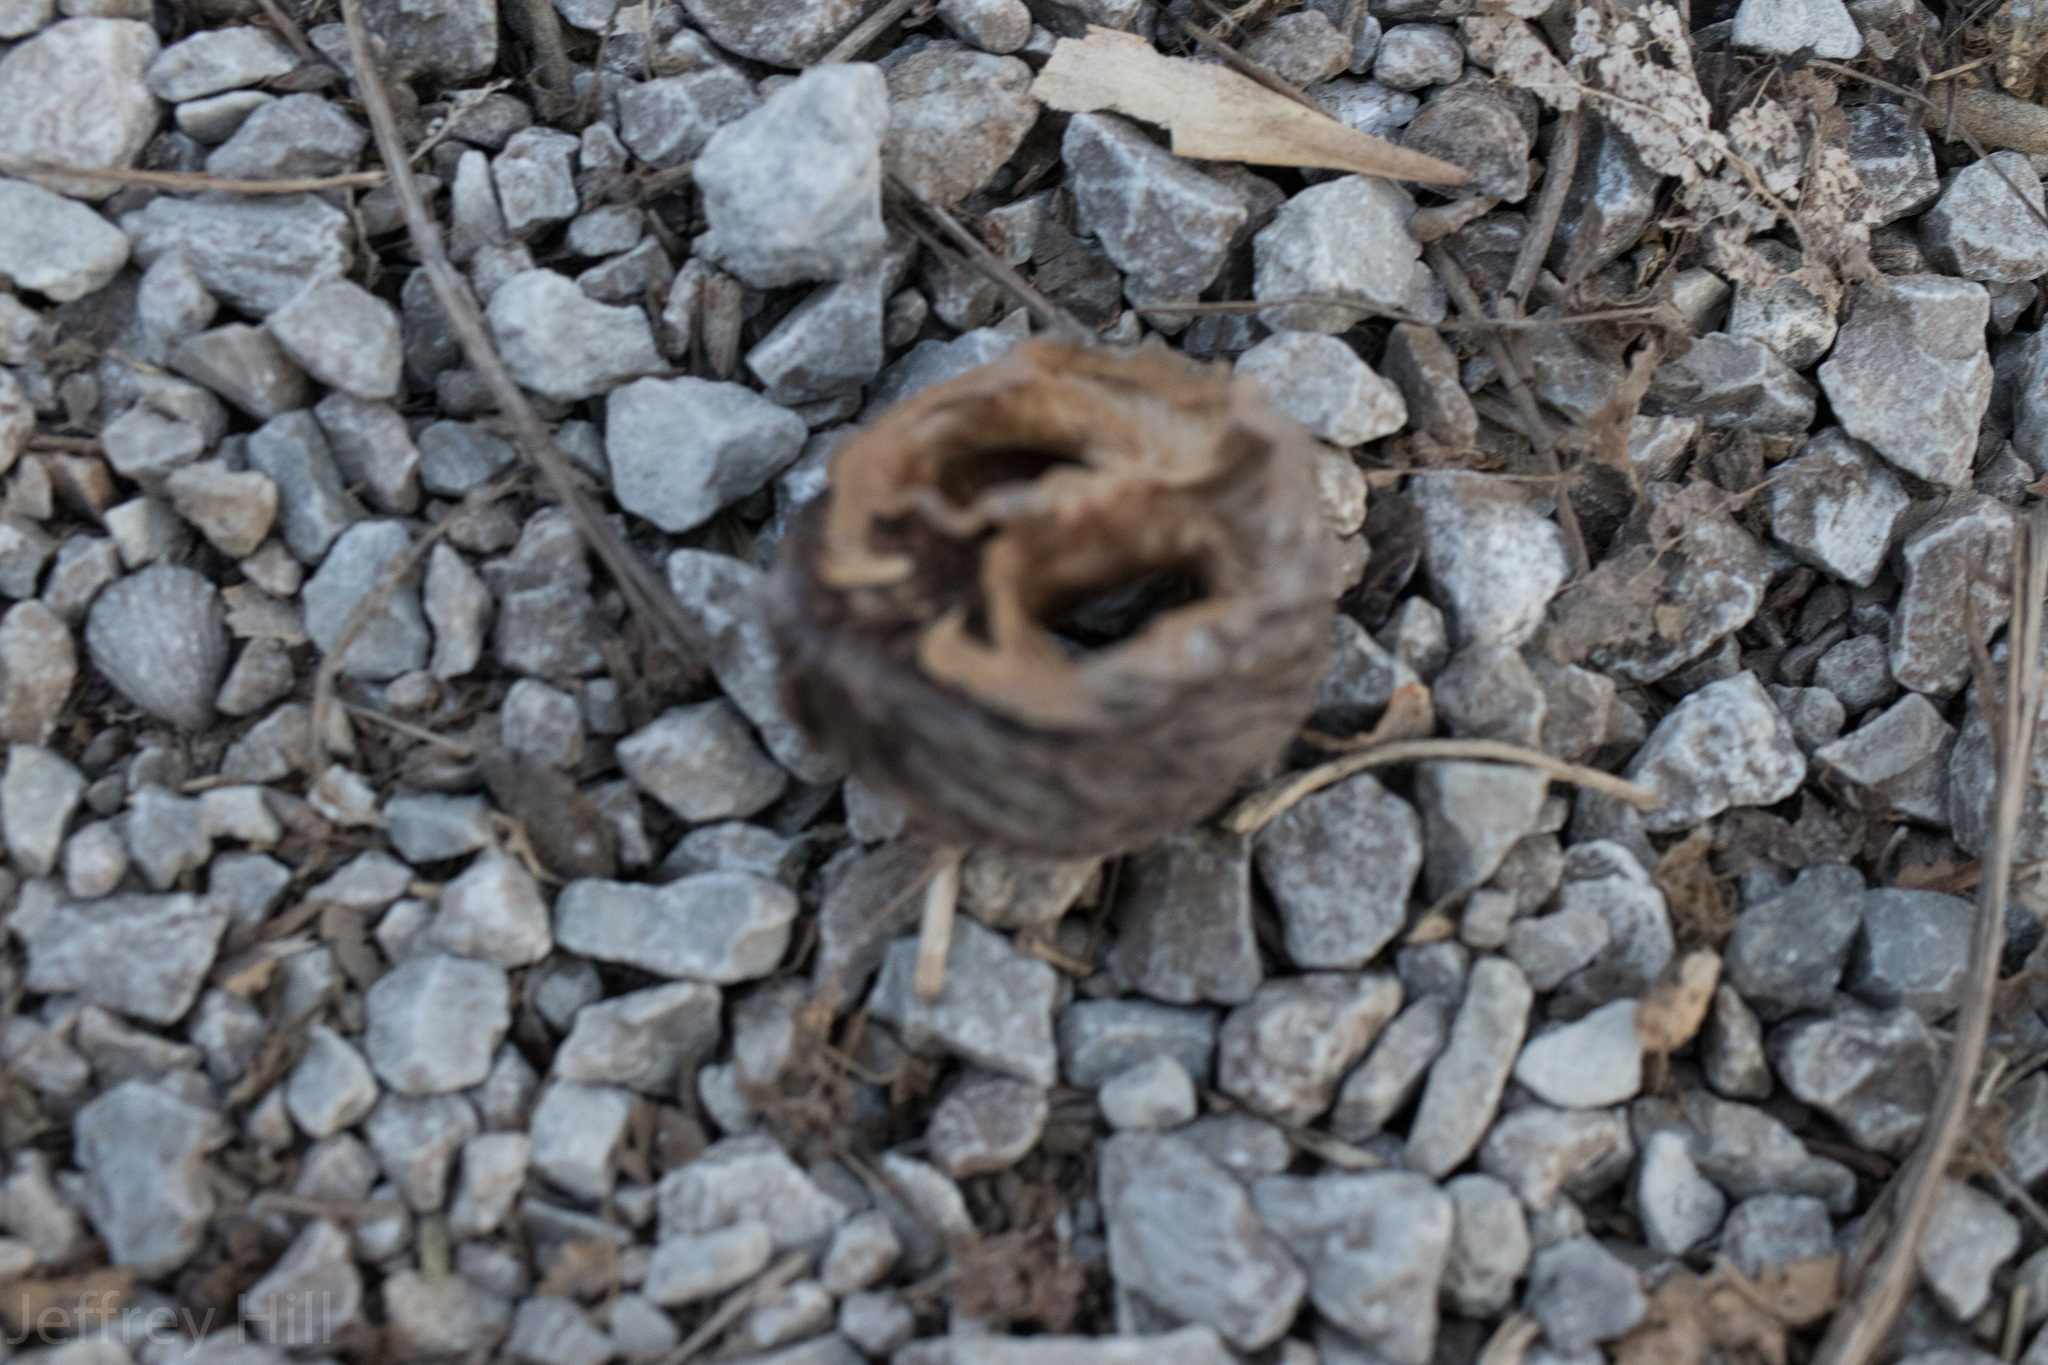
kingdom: Plantae
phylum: Tracheophyta
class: Magnoliopsida
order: Fagales
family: Juglandaceae
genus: Juglans
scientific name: Juglans nigra
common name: Black walnut
